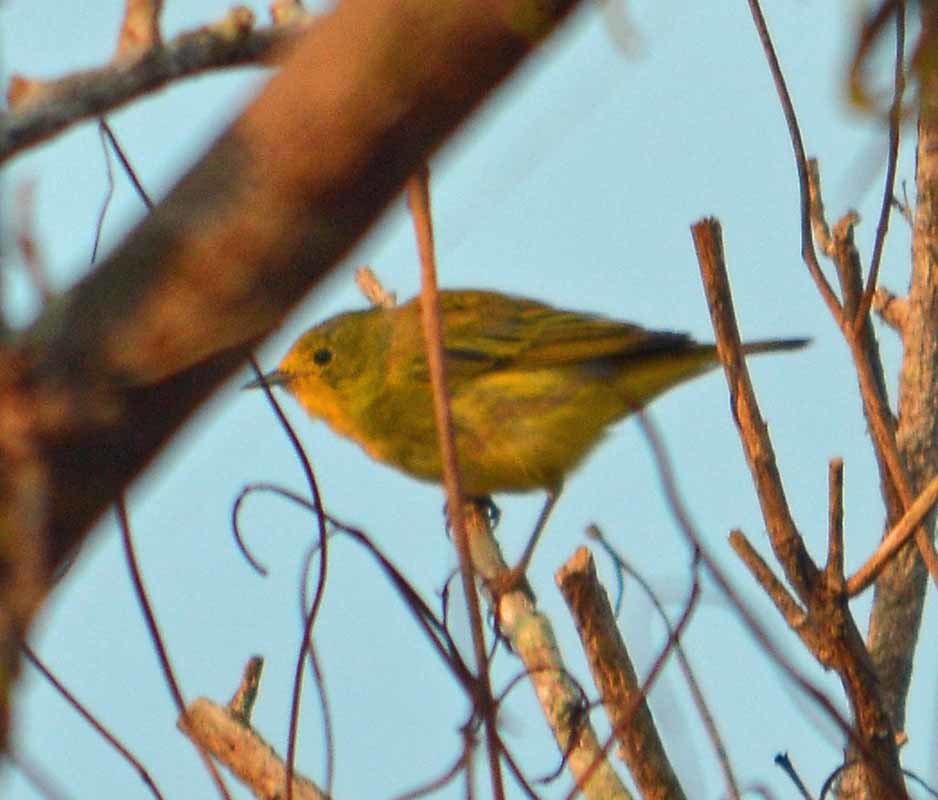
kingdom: Animalia
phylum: Chordata
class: Aves
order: Passeriformes
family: Parulidae
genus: Setophaga
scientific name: Setophaga petechia
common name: Yellow warbler
